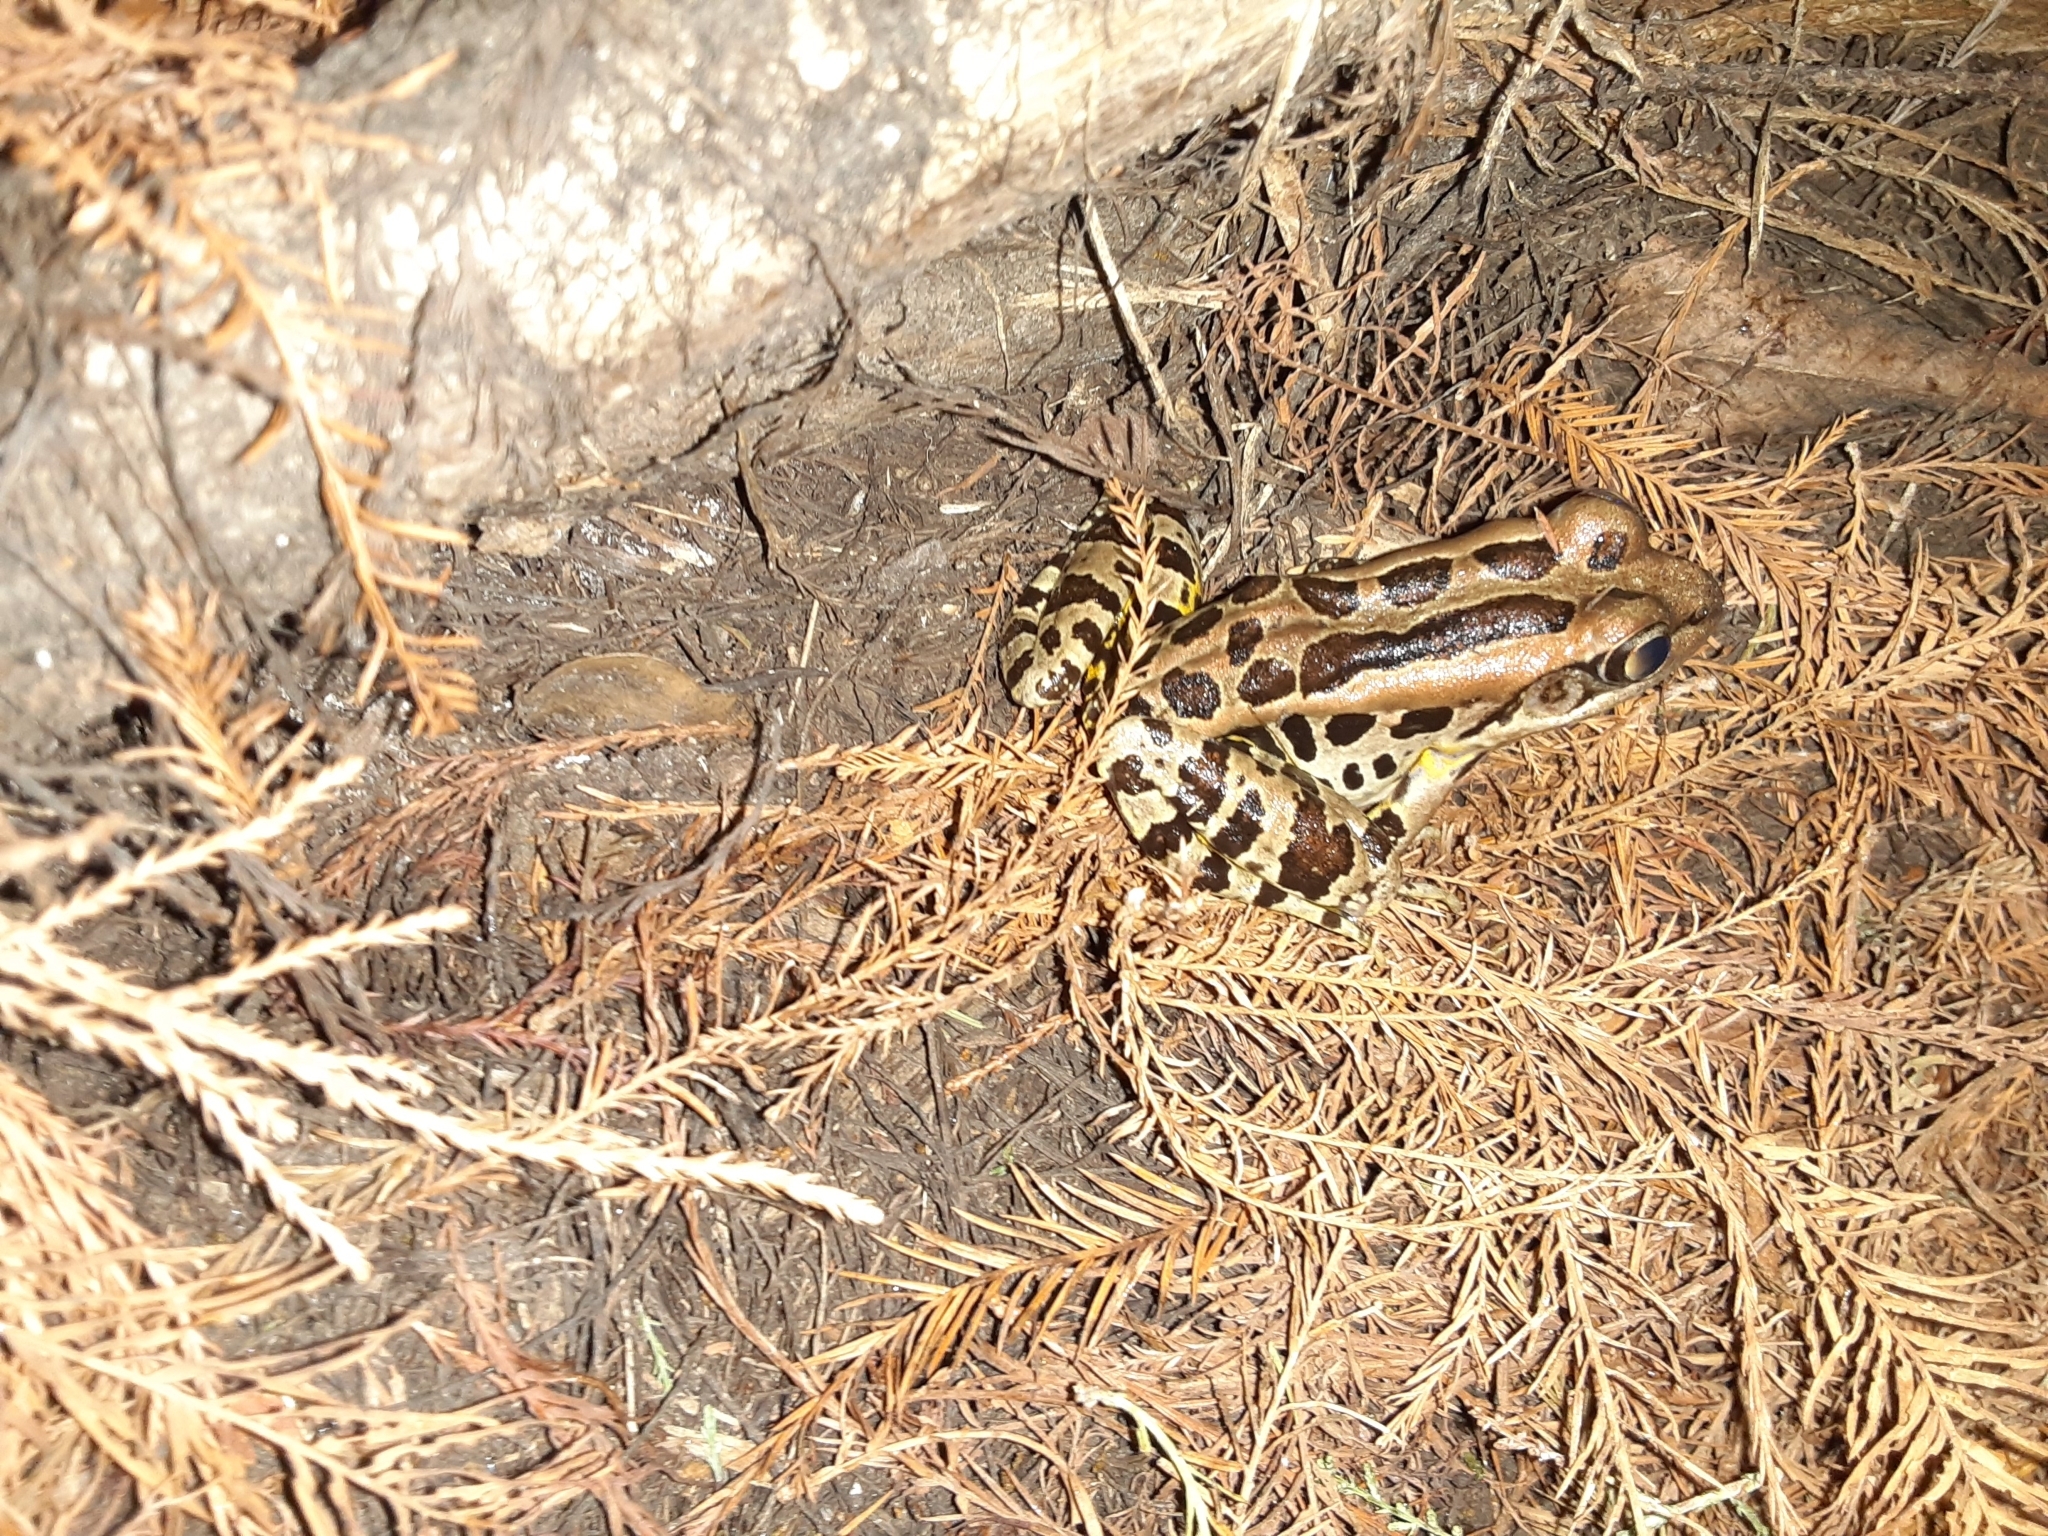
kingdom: Animalia
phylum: Chordata
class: Amphibia
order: Anura
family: Ranidae
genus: Lithobates
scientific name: Lithobates palustris
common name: Pickerel frog
